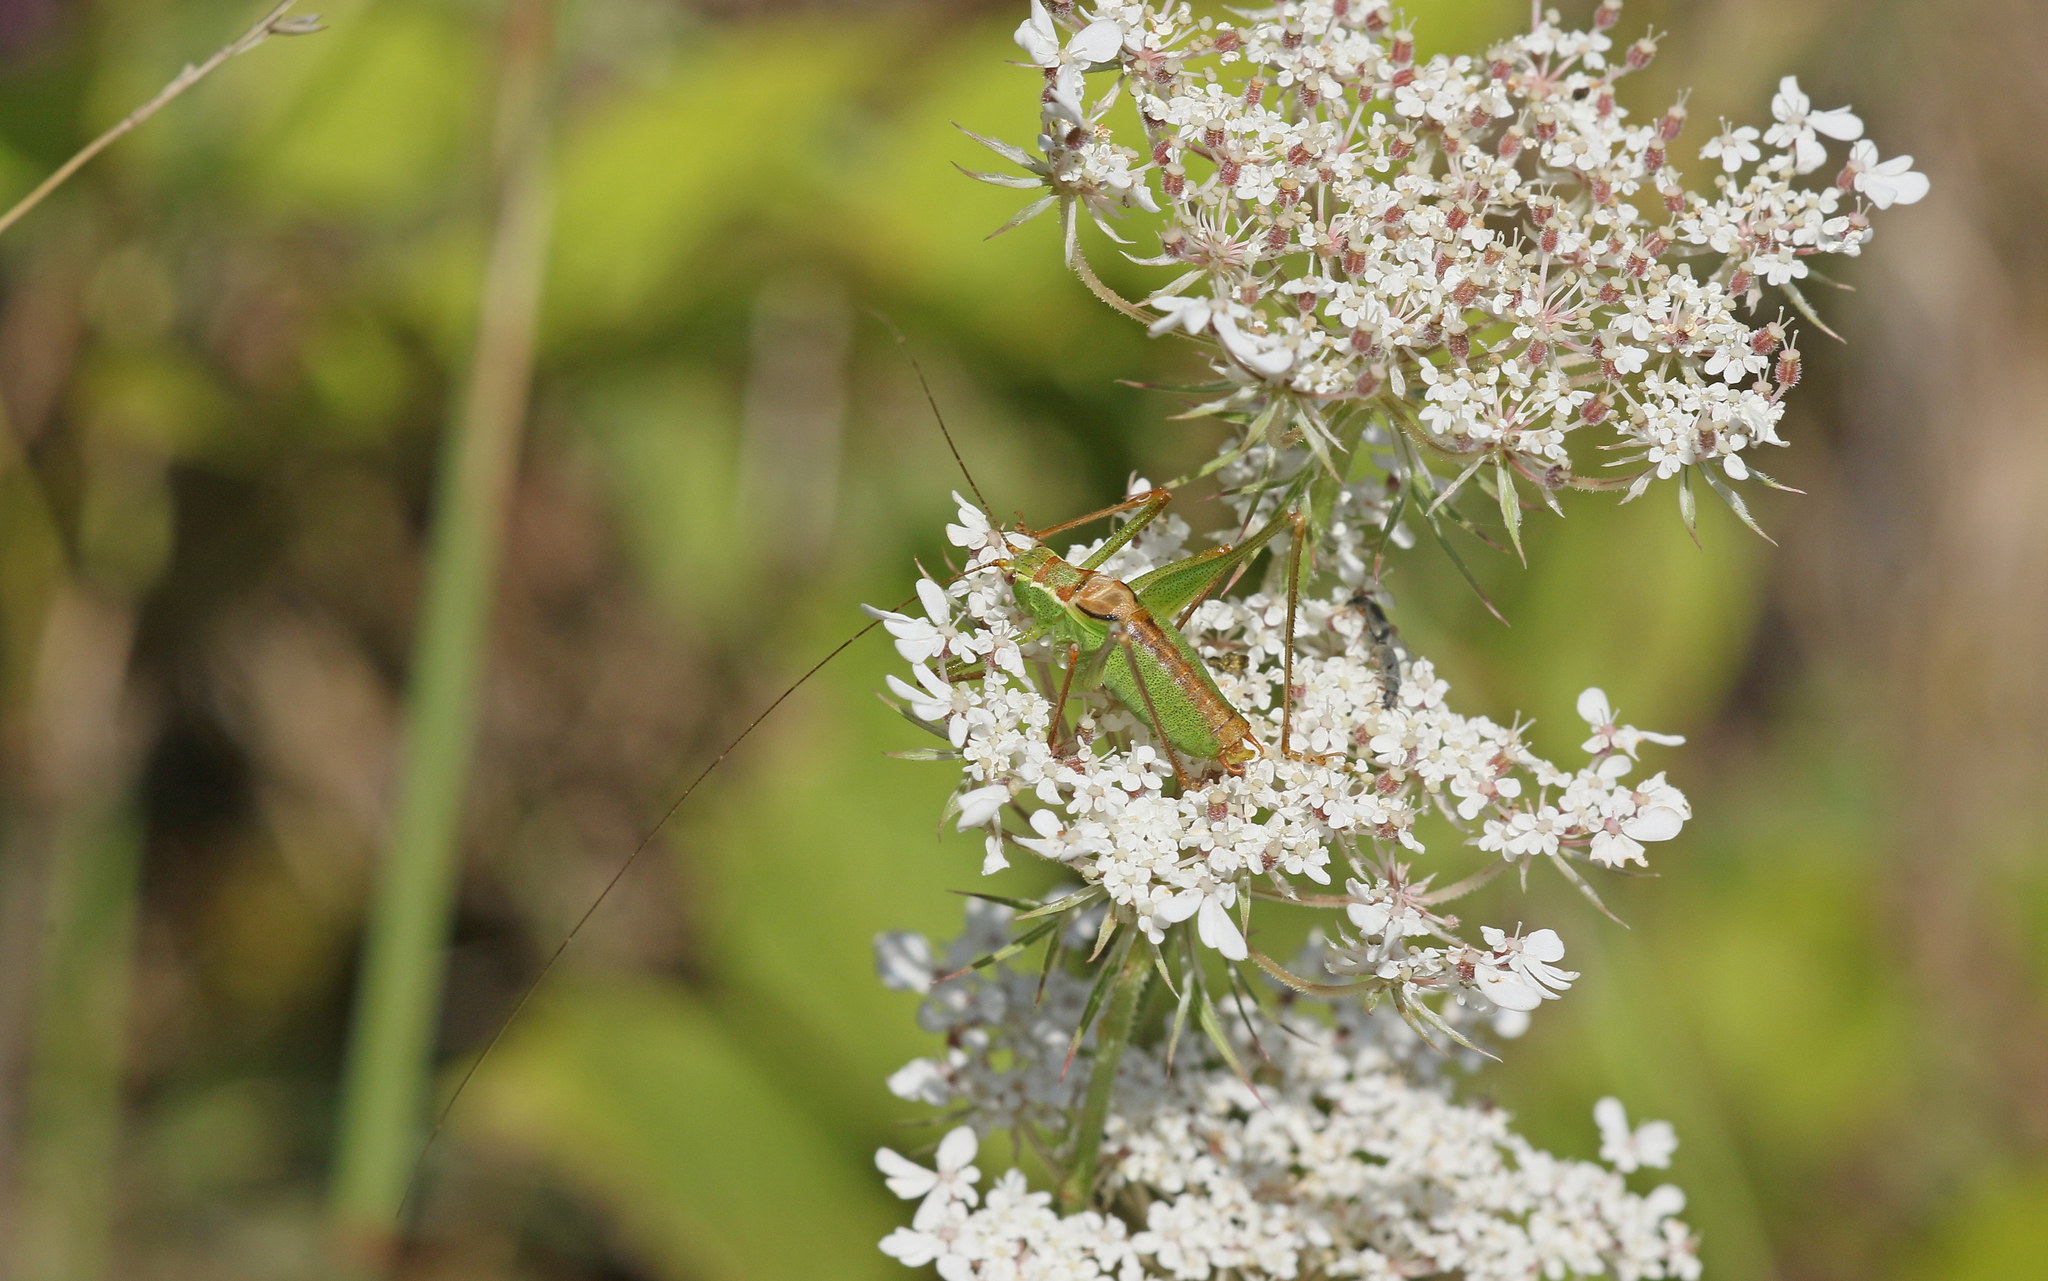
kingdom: Animalia
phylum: Arthropoda
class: Insecta
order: Orthoptera
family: Tettigoniidae
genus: Leptophyes
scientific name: Leptophyes punctatissima
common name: Speckled bush-cricket
